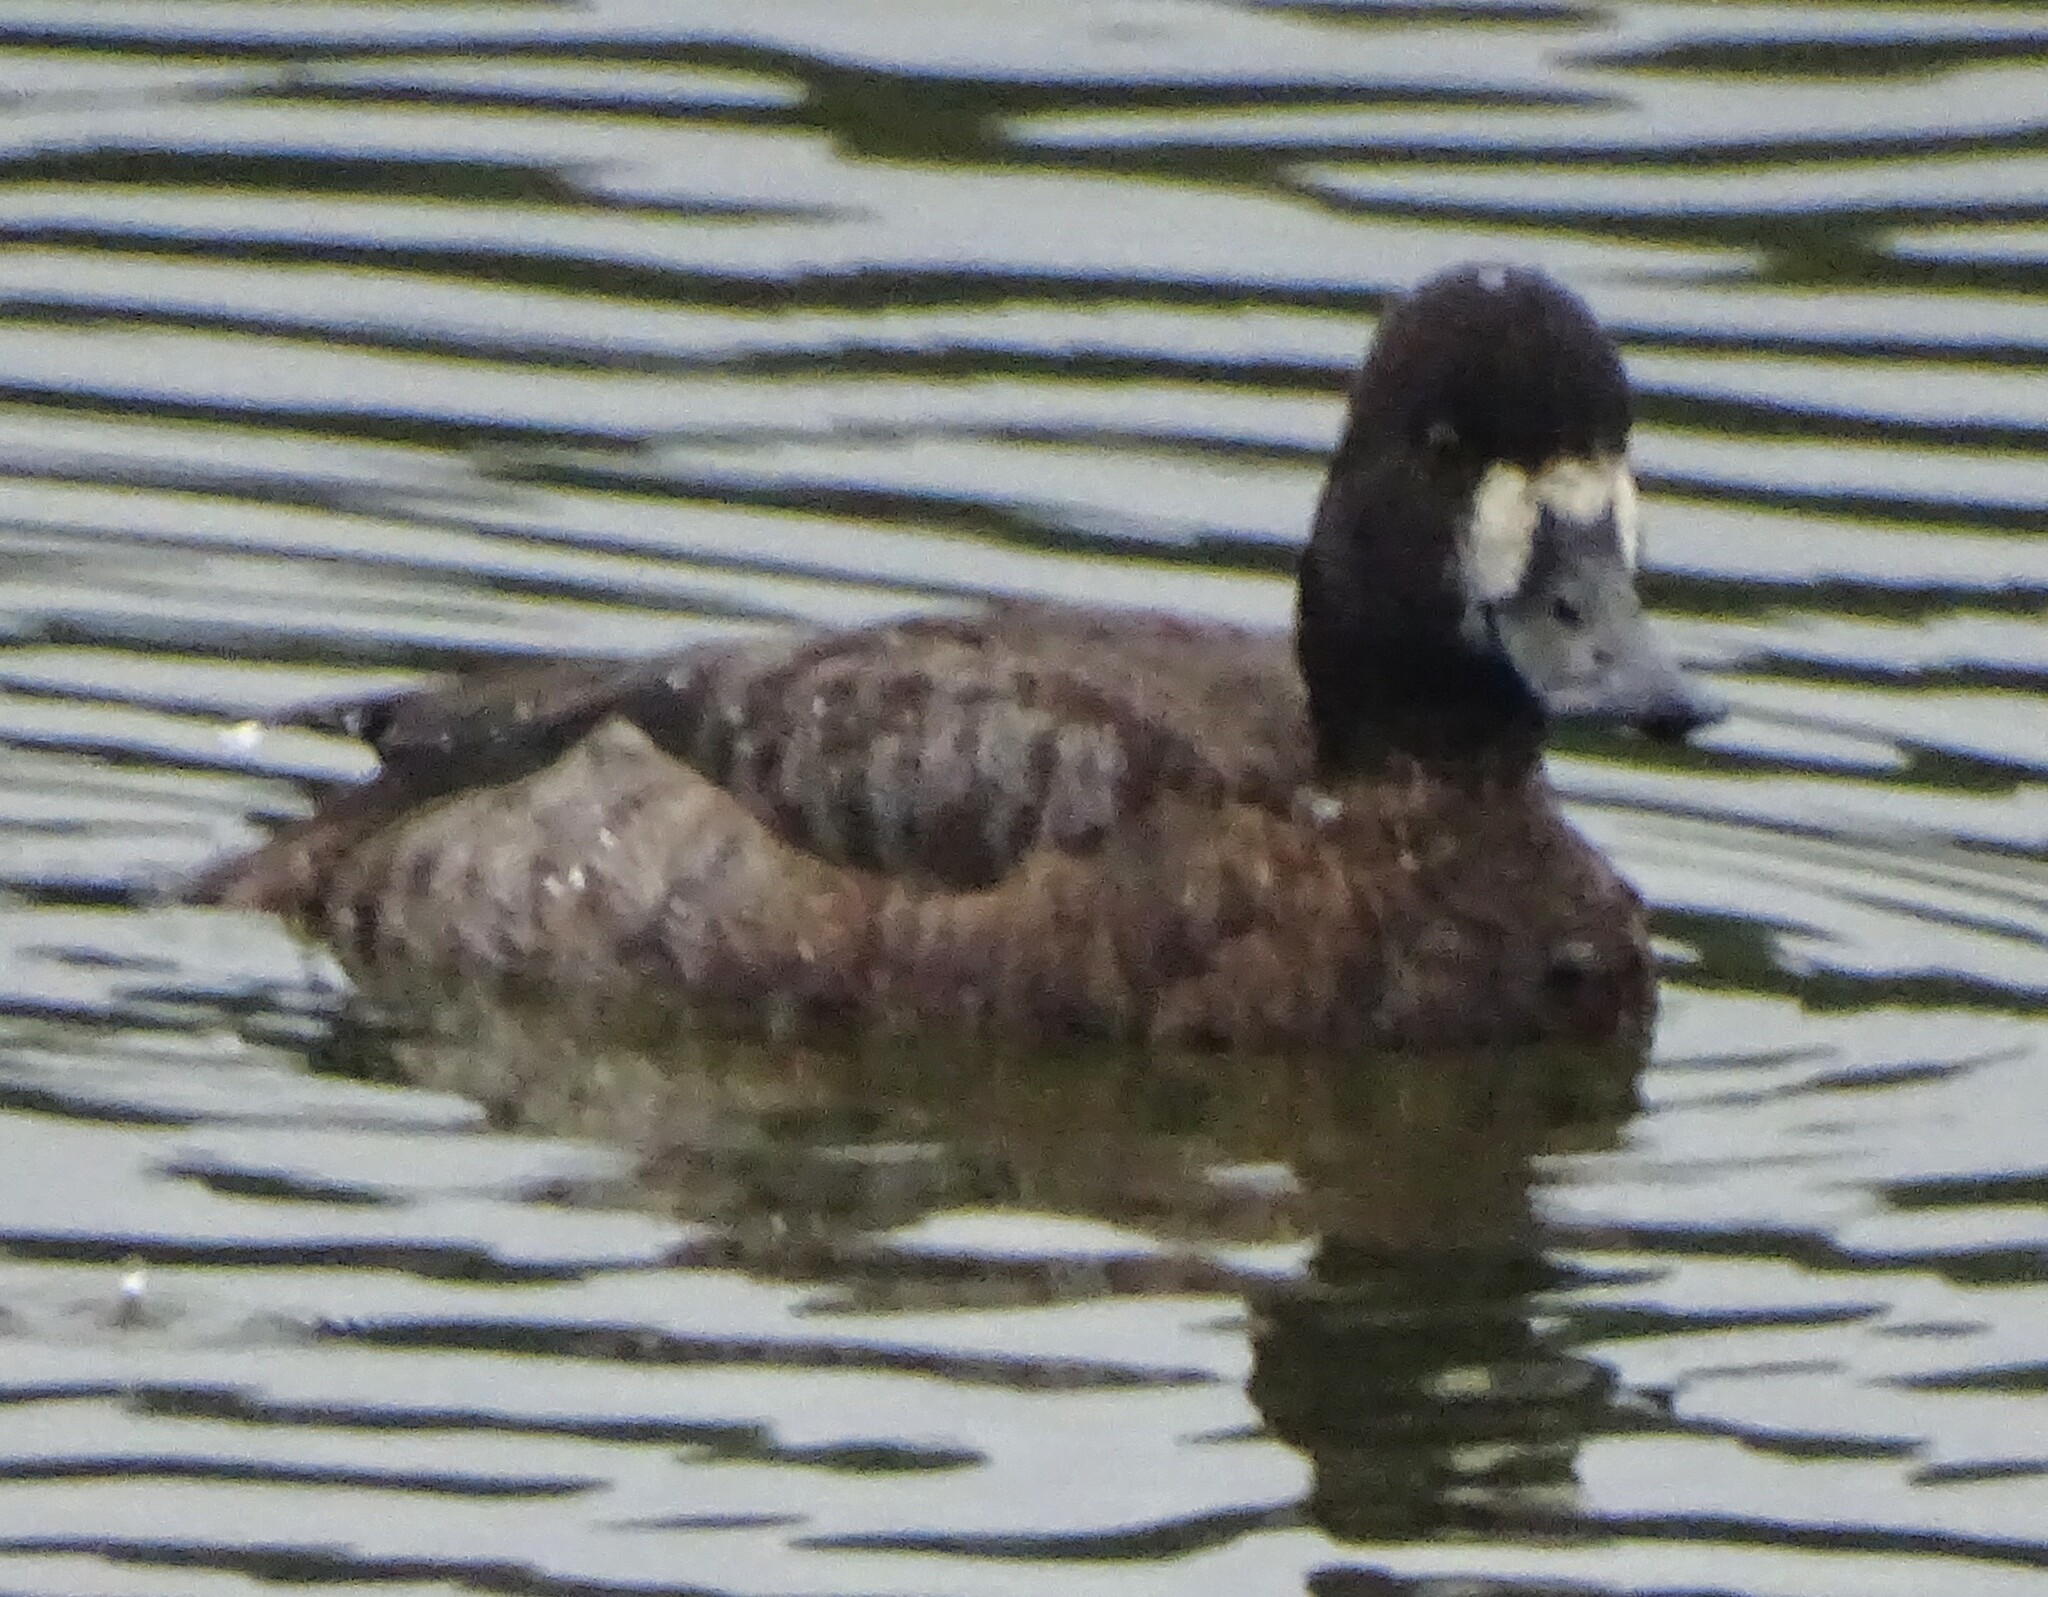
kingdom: Animalia
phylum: Chordata
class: Aves
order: Anseriformes
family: Anatidae
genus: Aythya
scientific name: Aythya affinis
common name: Lesser scaup
